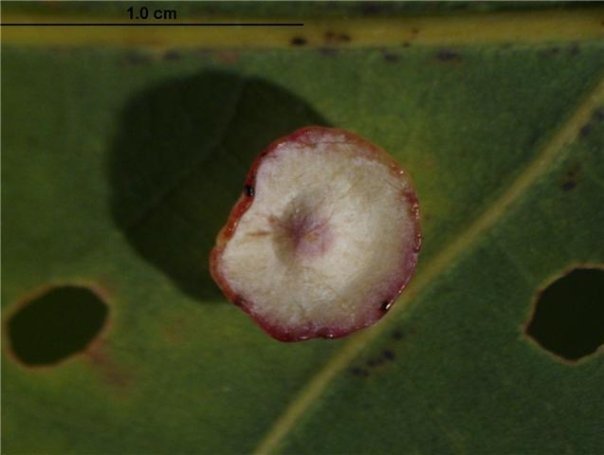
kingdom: Animalia
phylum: Arthropoda
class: Insecta
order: Hymenoptera
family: Cynipidae
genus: Phylloteras
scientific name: Phylloteras poculum
